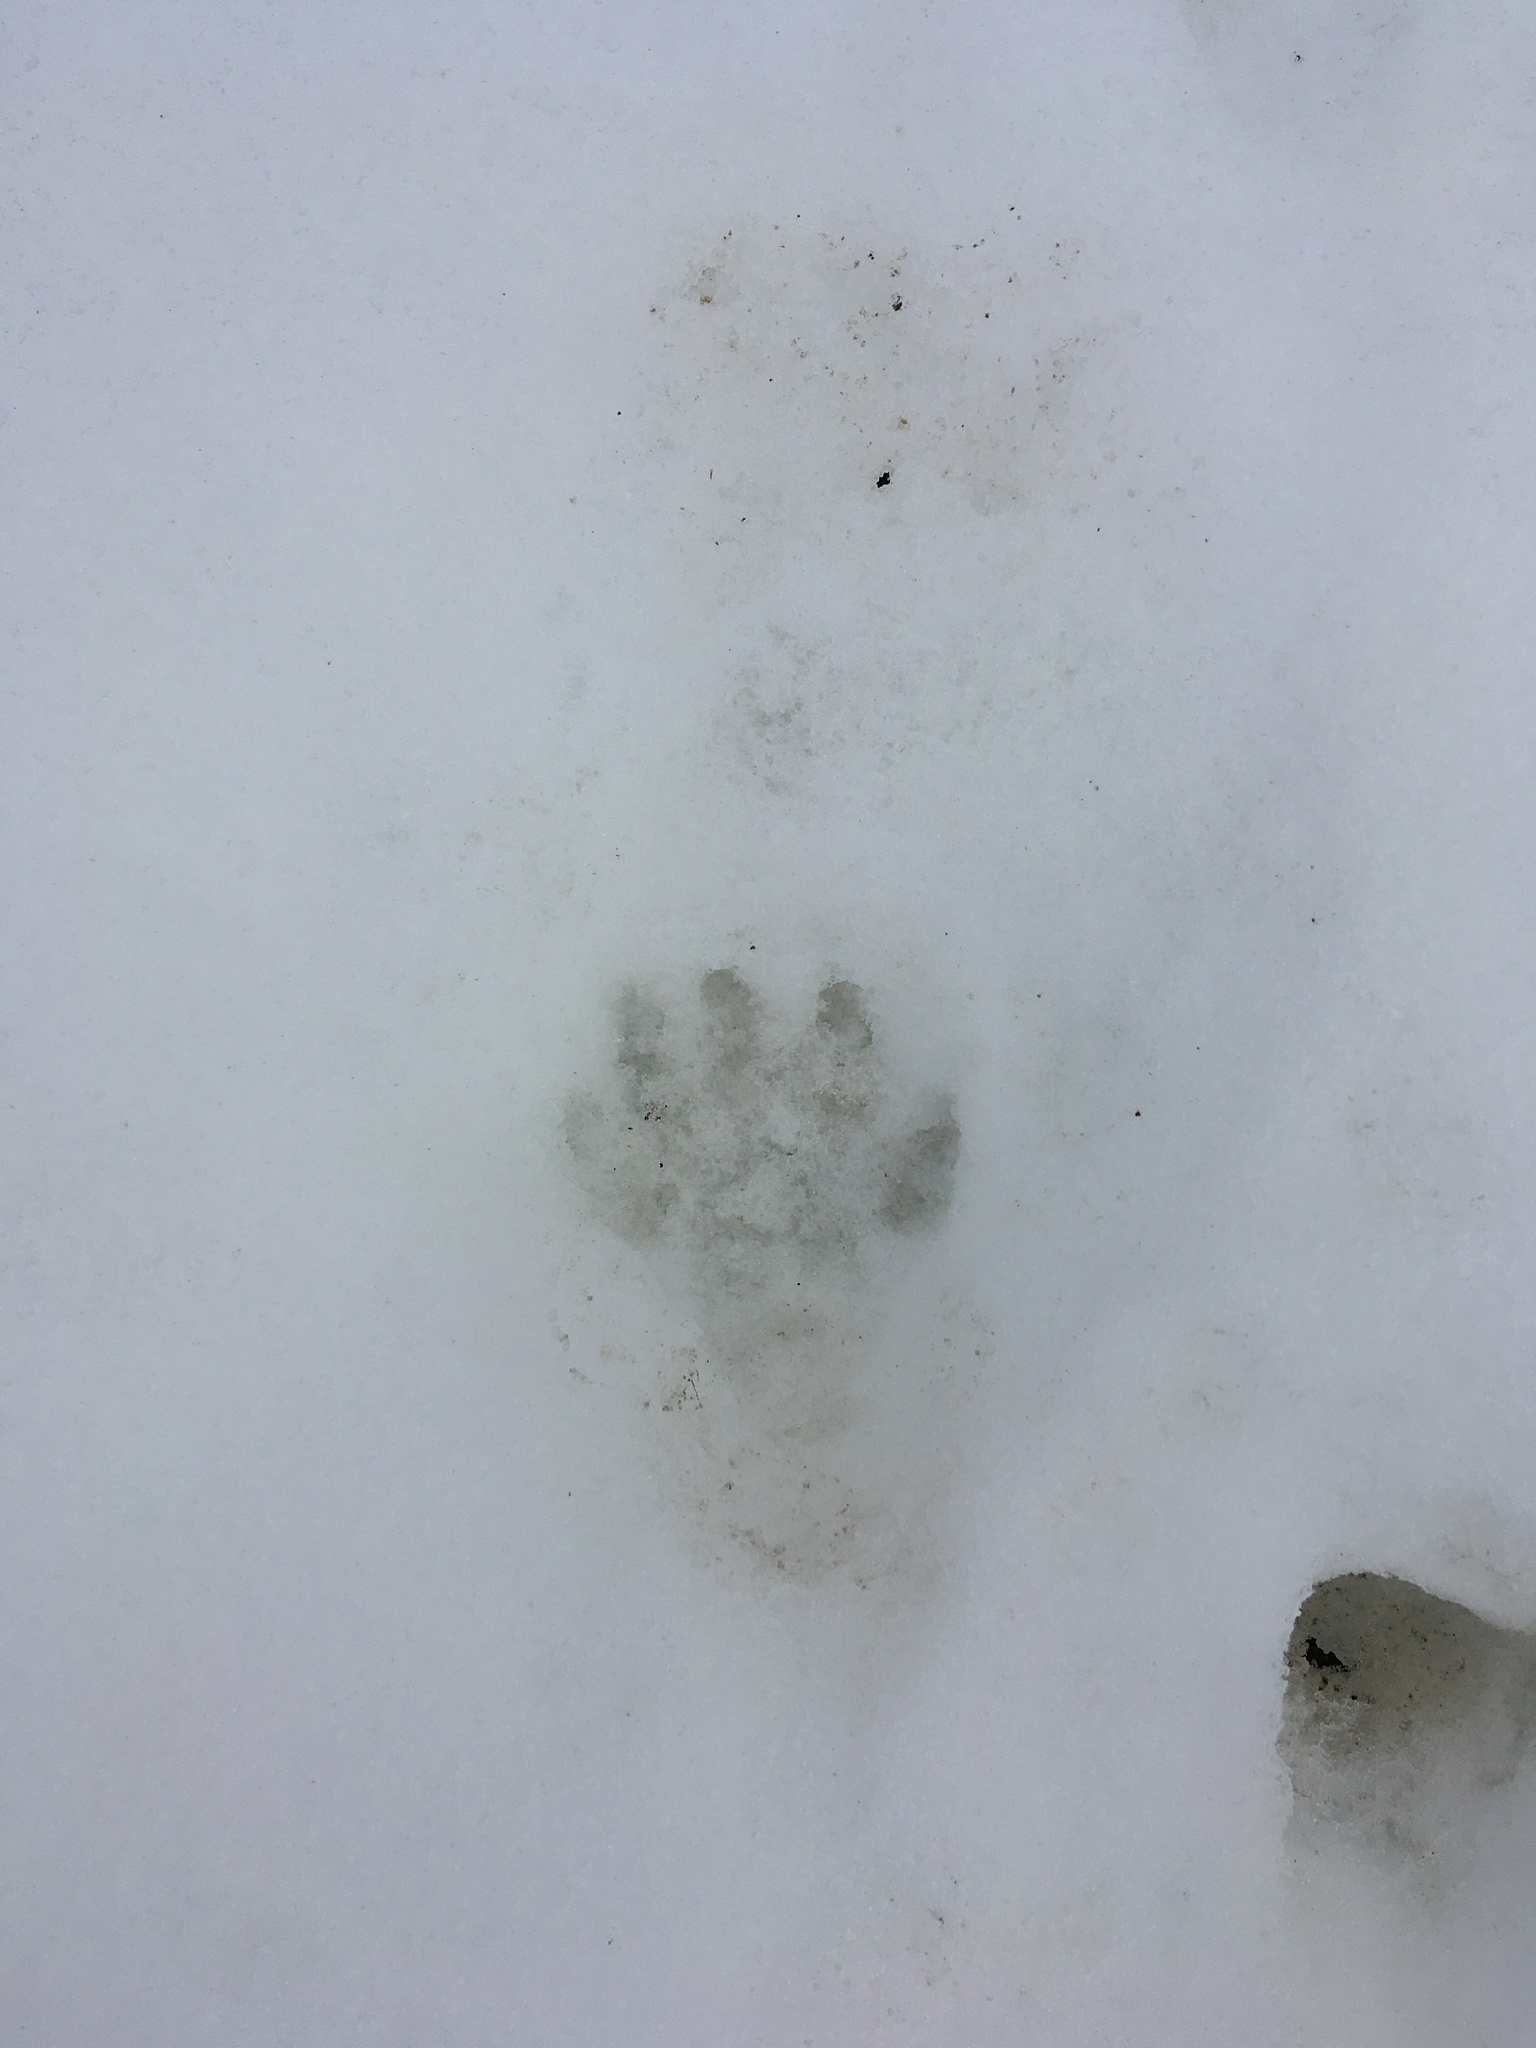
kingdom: Animalia
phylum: Chordata
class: Mammalia
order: Carnivora
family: Procyonidae
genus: Procyon
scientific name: Procyon lotor
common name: Raccoon
